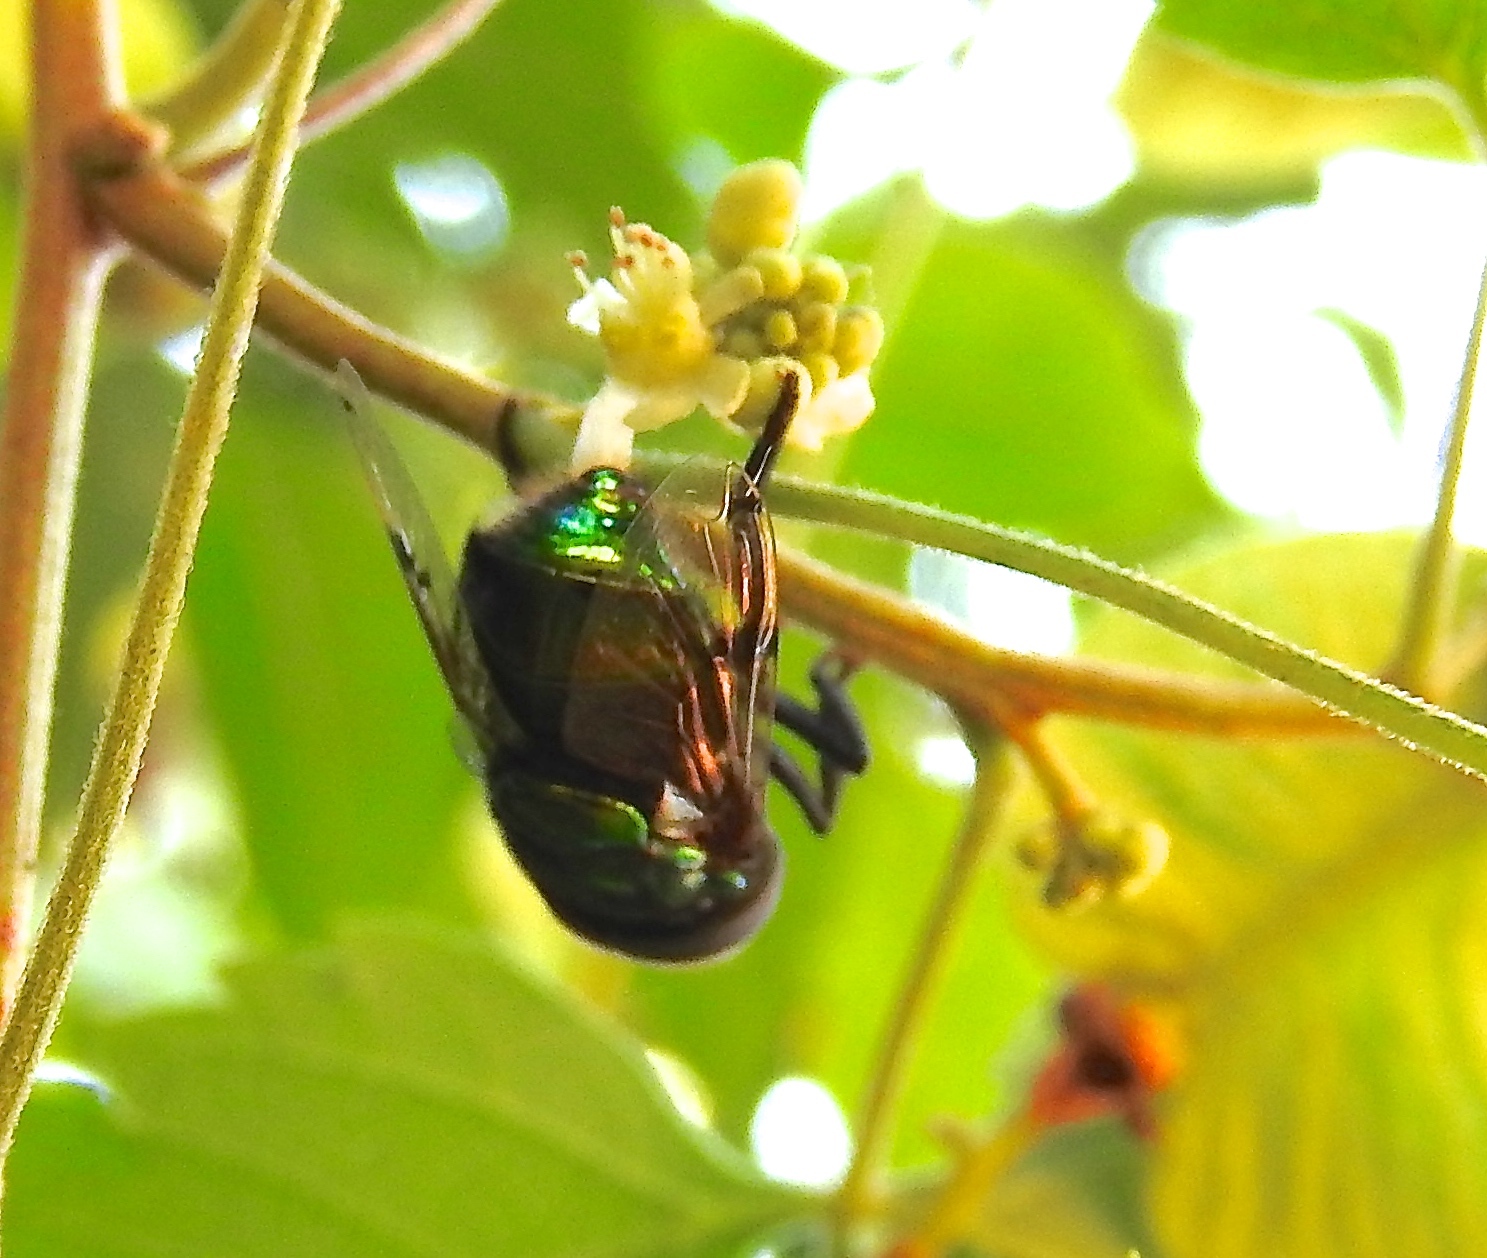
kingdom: Animalia
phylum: Arthropoda
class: Insecta
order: Diptera
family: Syrphidae
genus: Ornidia
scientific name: Ornidia
